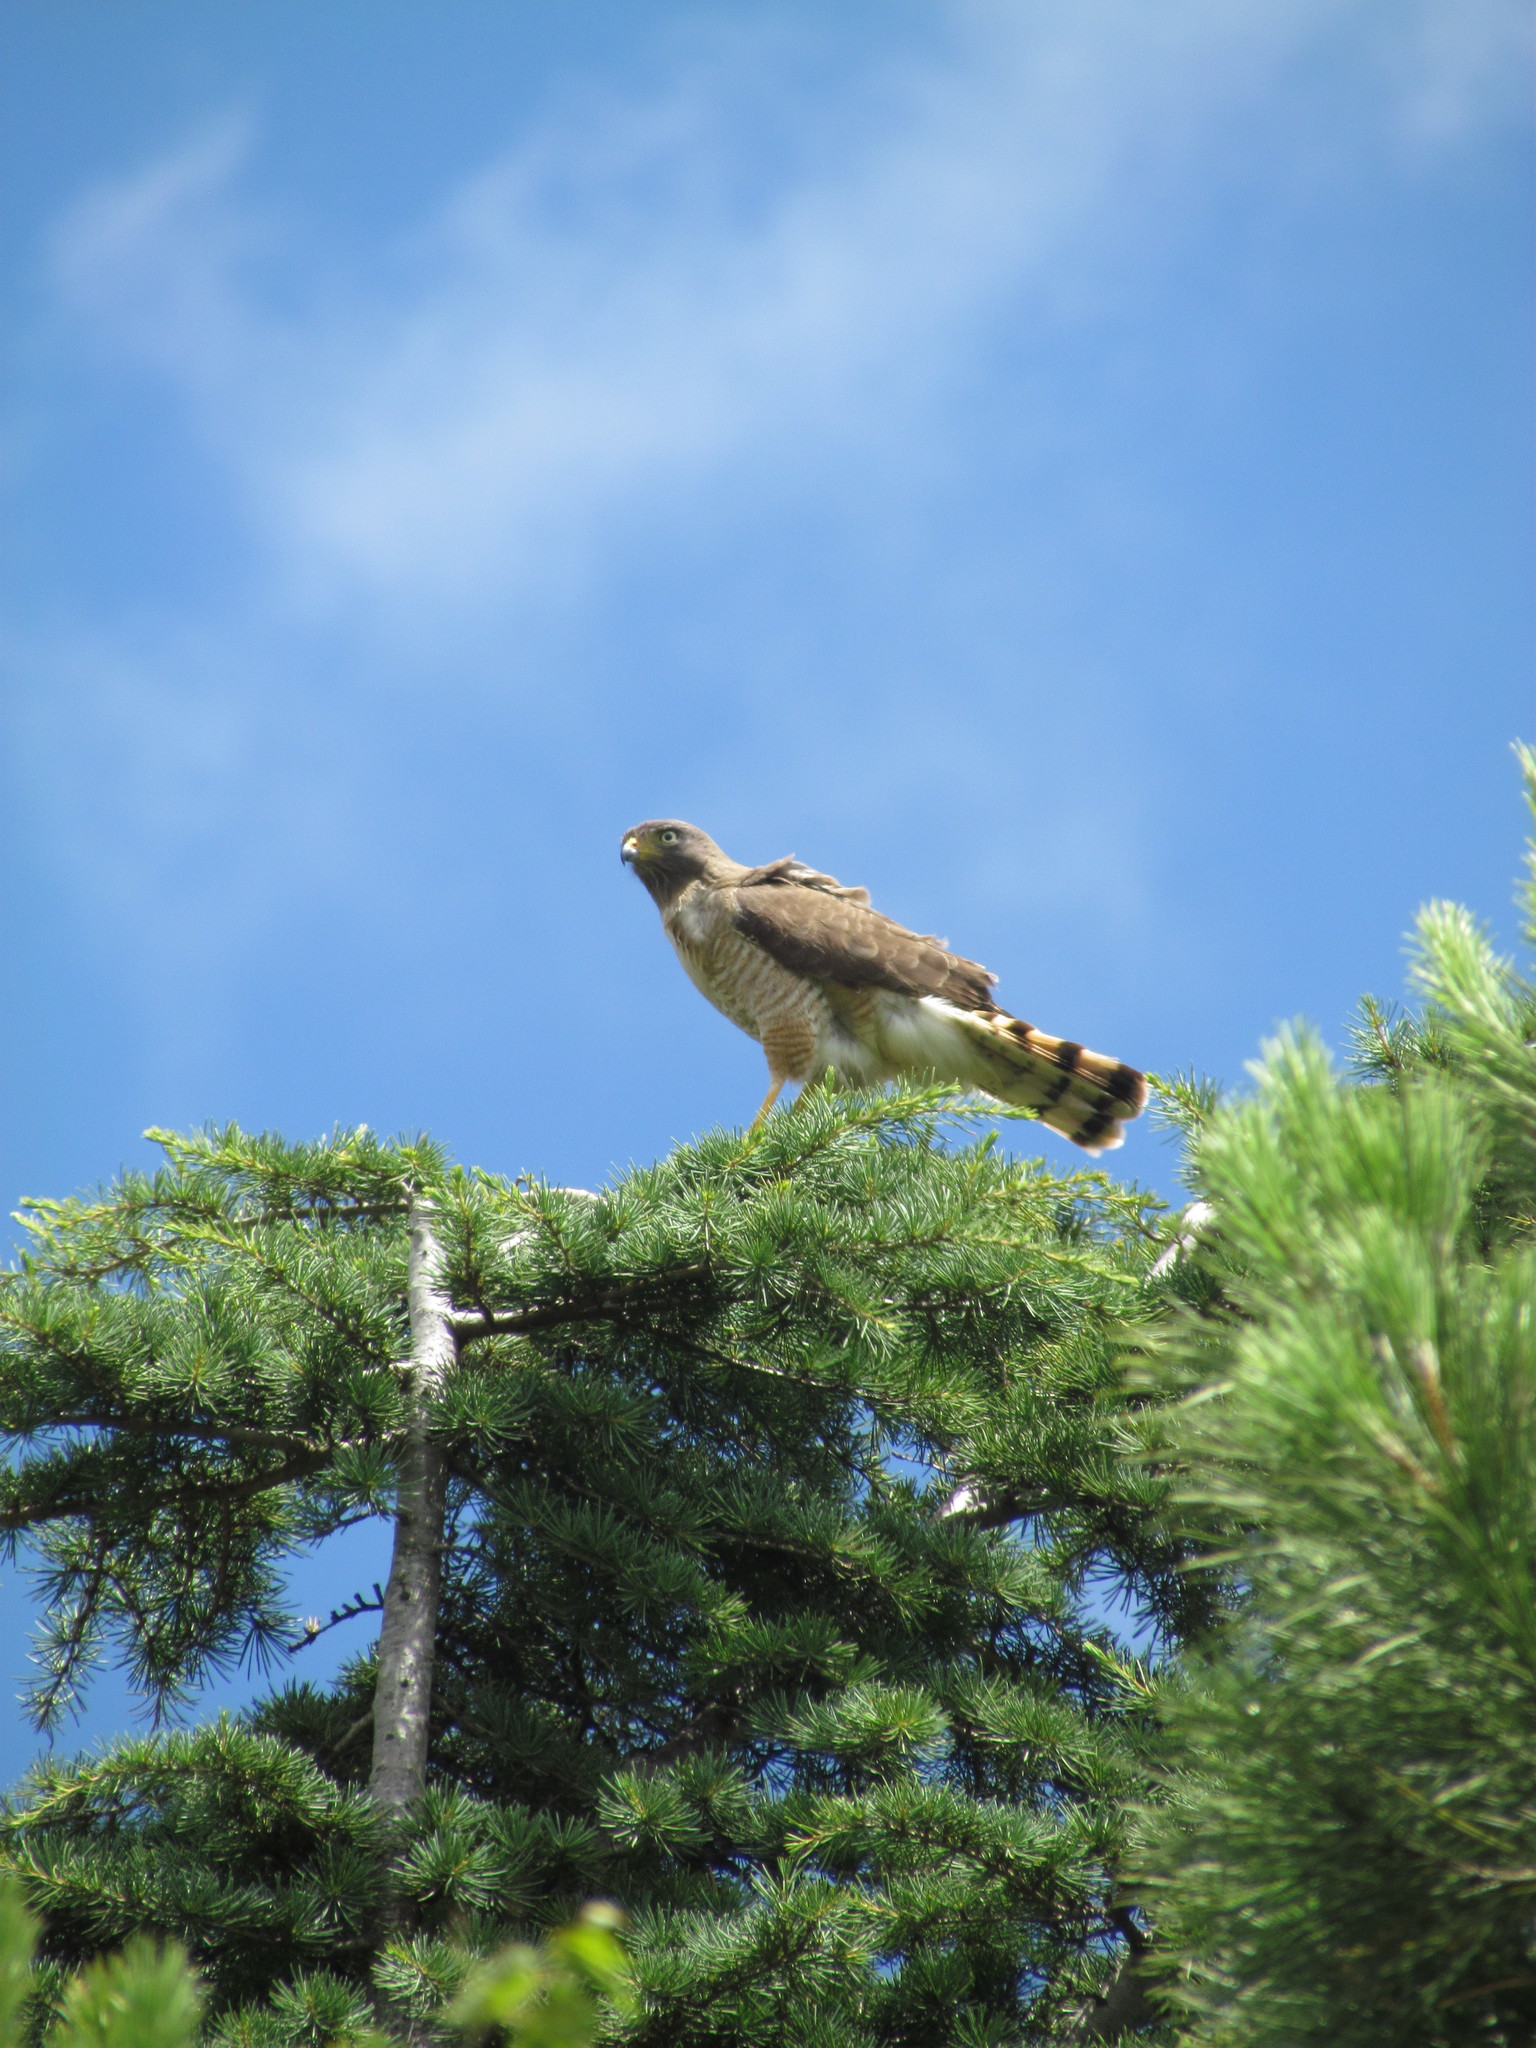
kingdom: Animalia
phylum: Chordata
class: Aves
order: Accipitriformes
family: Accipitridae
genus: Rupornis
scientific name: Rupornis magnirostris
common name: Roadside hawk
